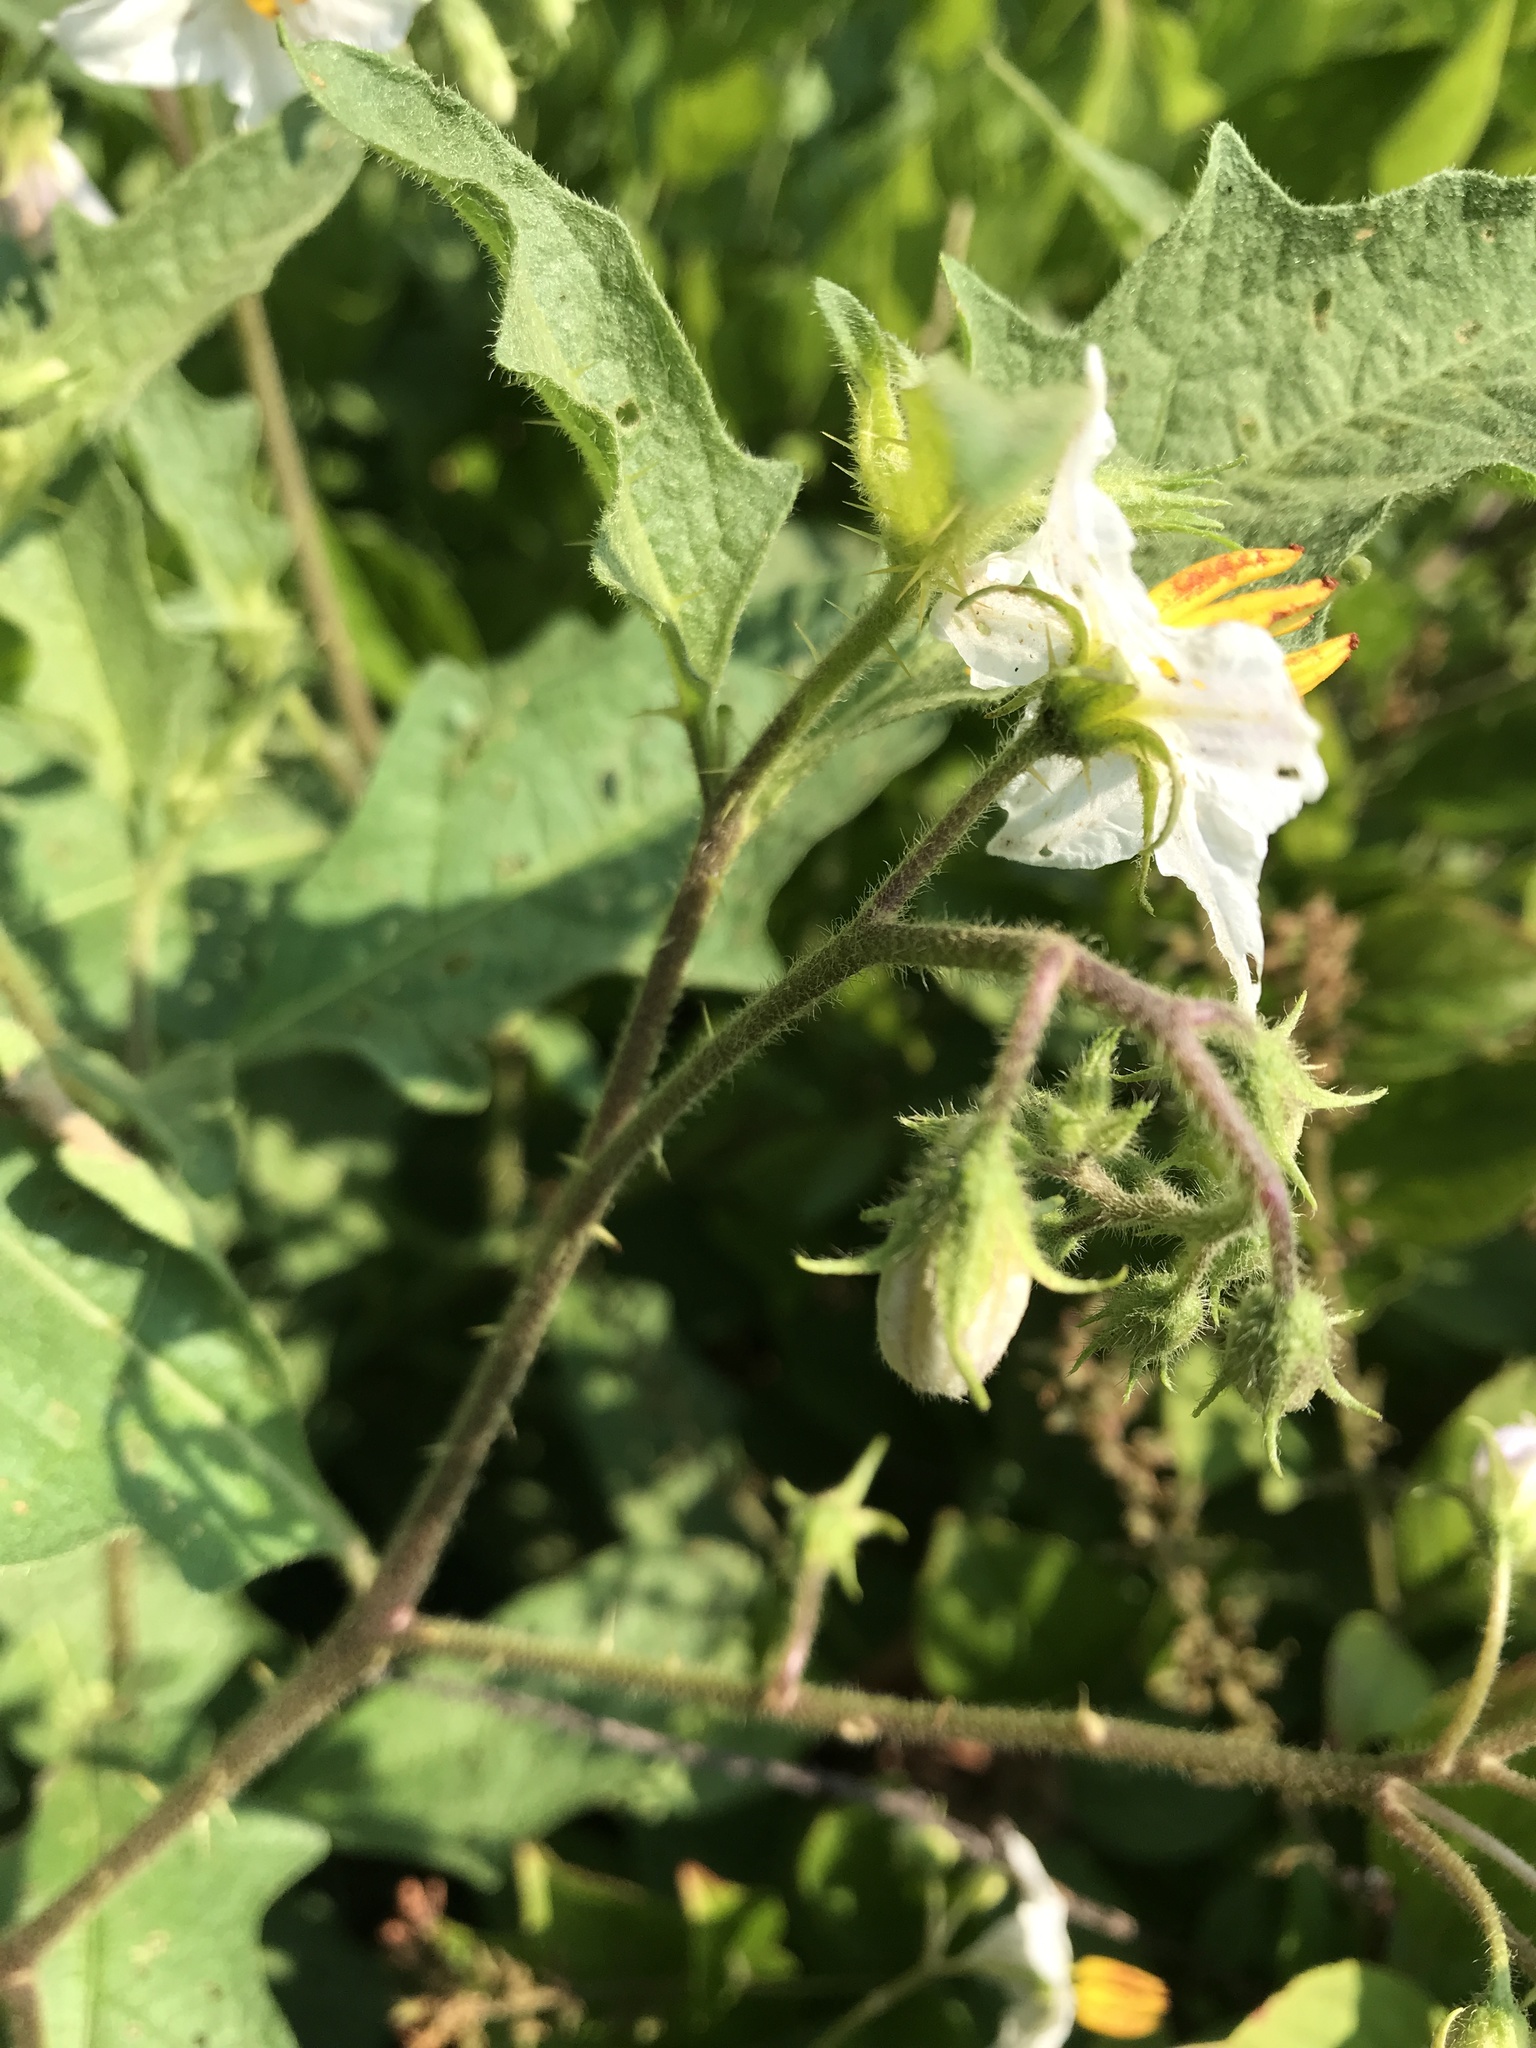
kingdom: Plantae
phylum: Tracheophyta
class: Magnoliopsida
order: Solanales
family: Solanaceae
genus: Solanum
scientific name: Solanum carolinense
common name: Horse-nettle
